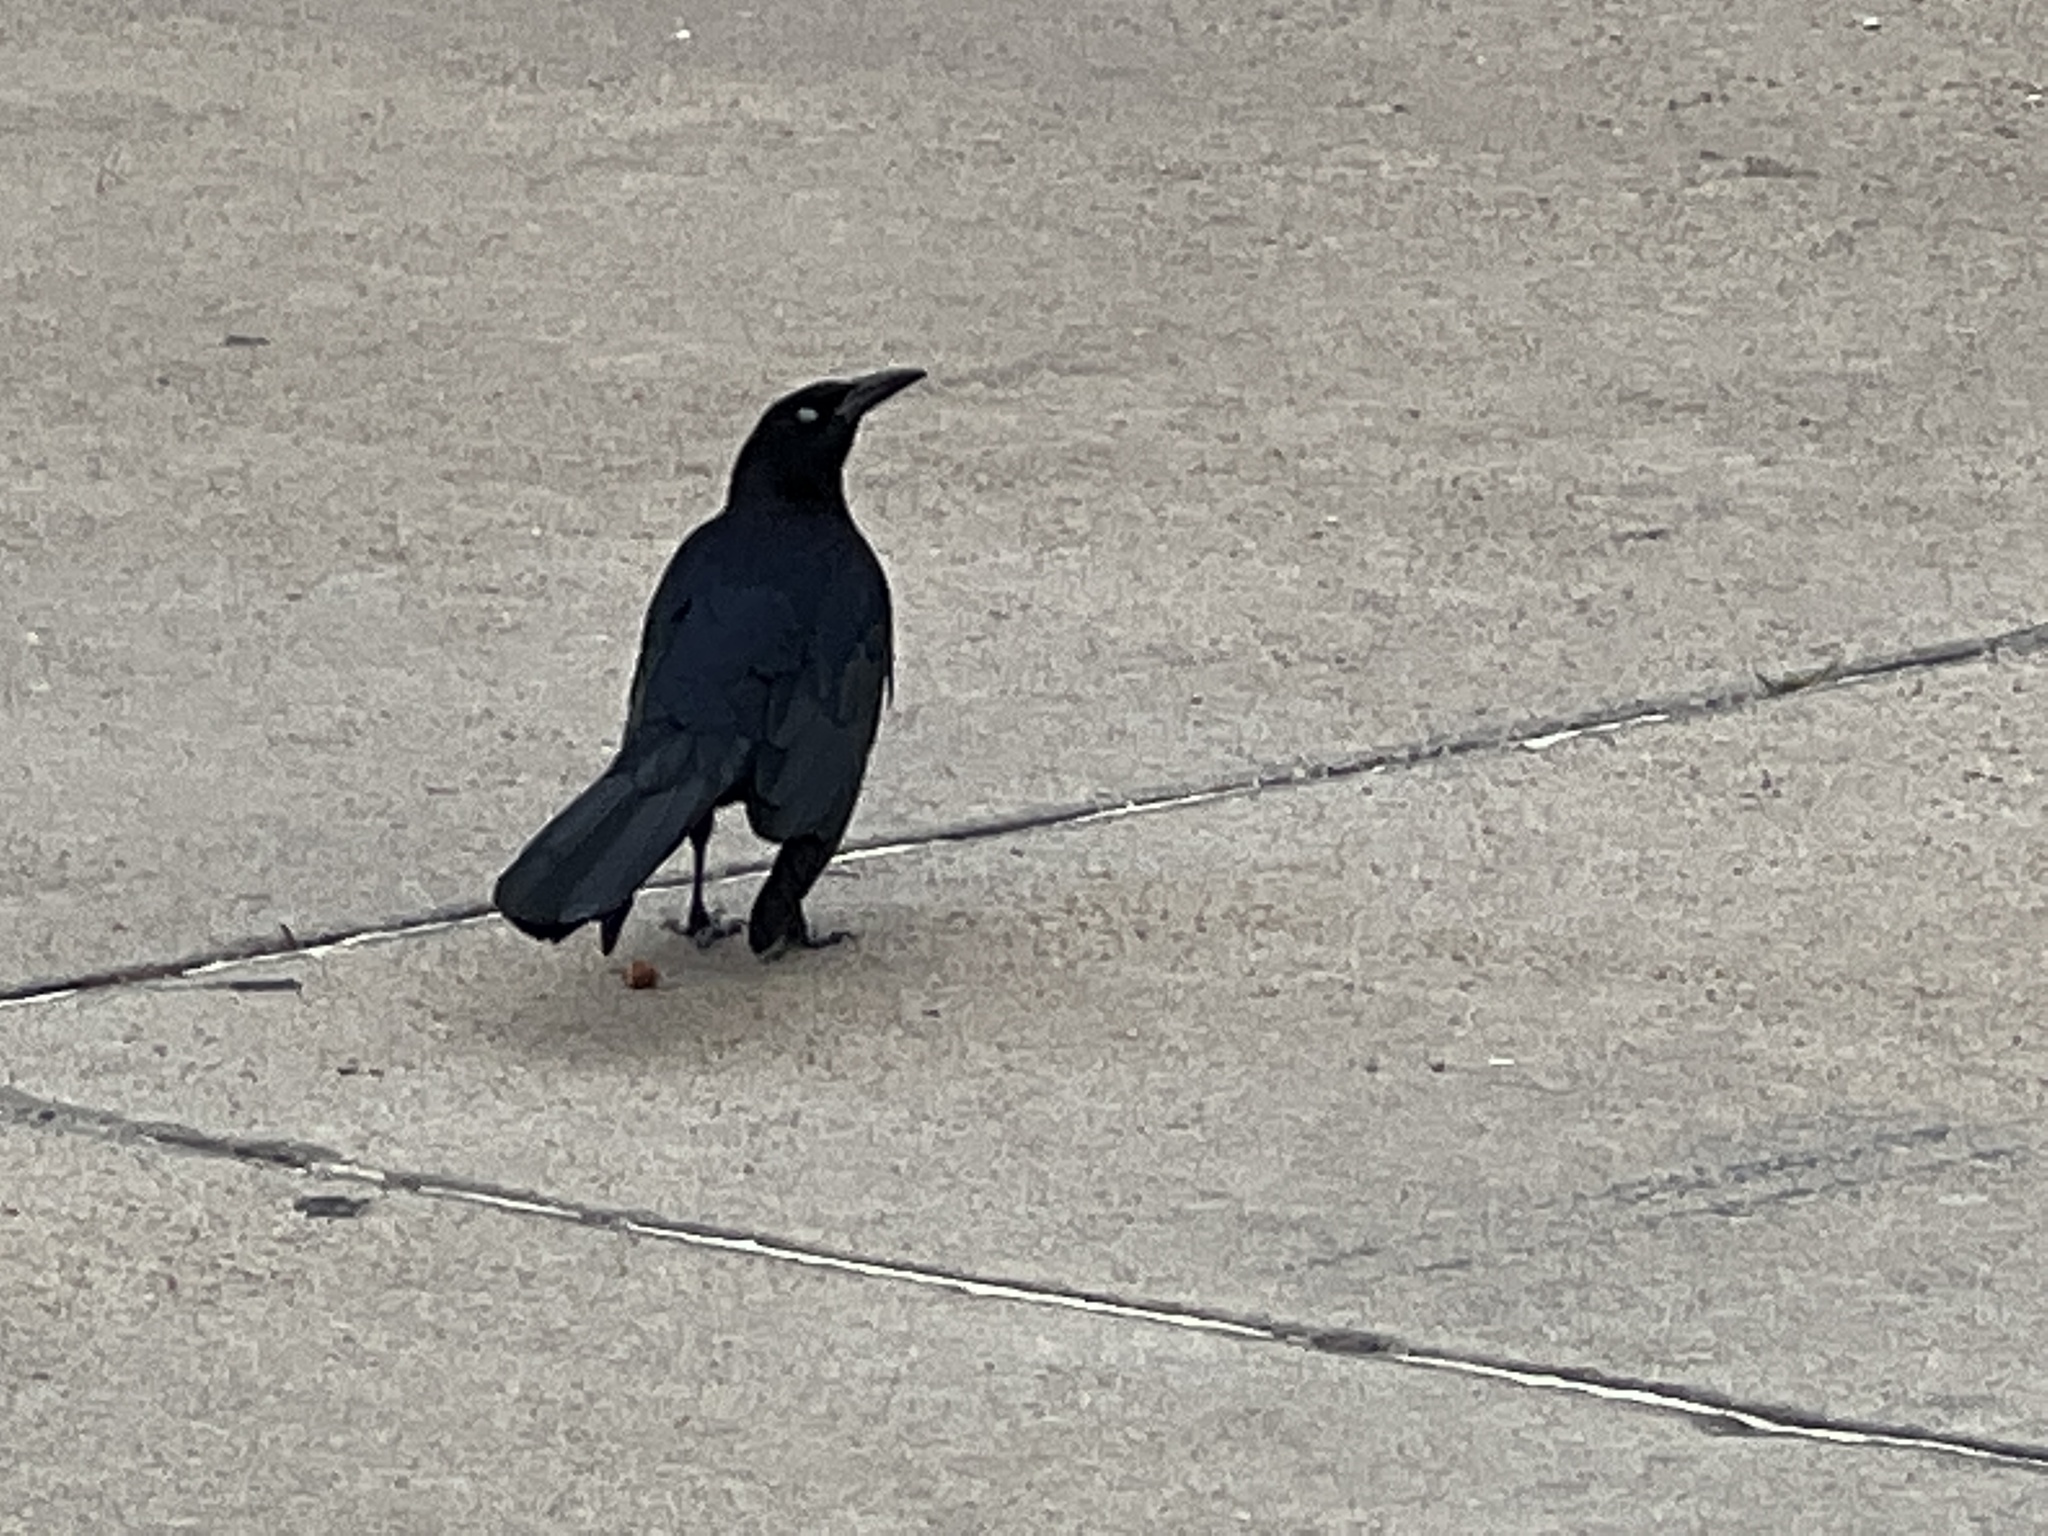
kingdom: Animalia
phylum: Chordata
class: Aves
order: Passeriformes
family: Icteridae
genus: Quiscalus
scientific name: Quiscalus mexicanus
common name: Great-tailed grackle
